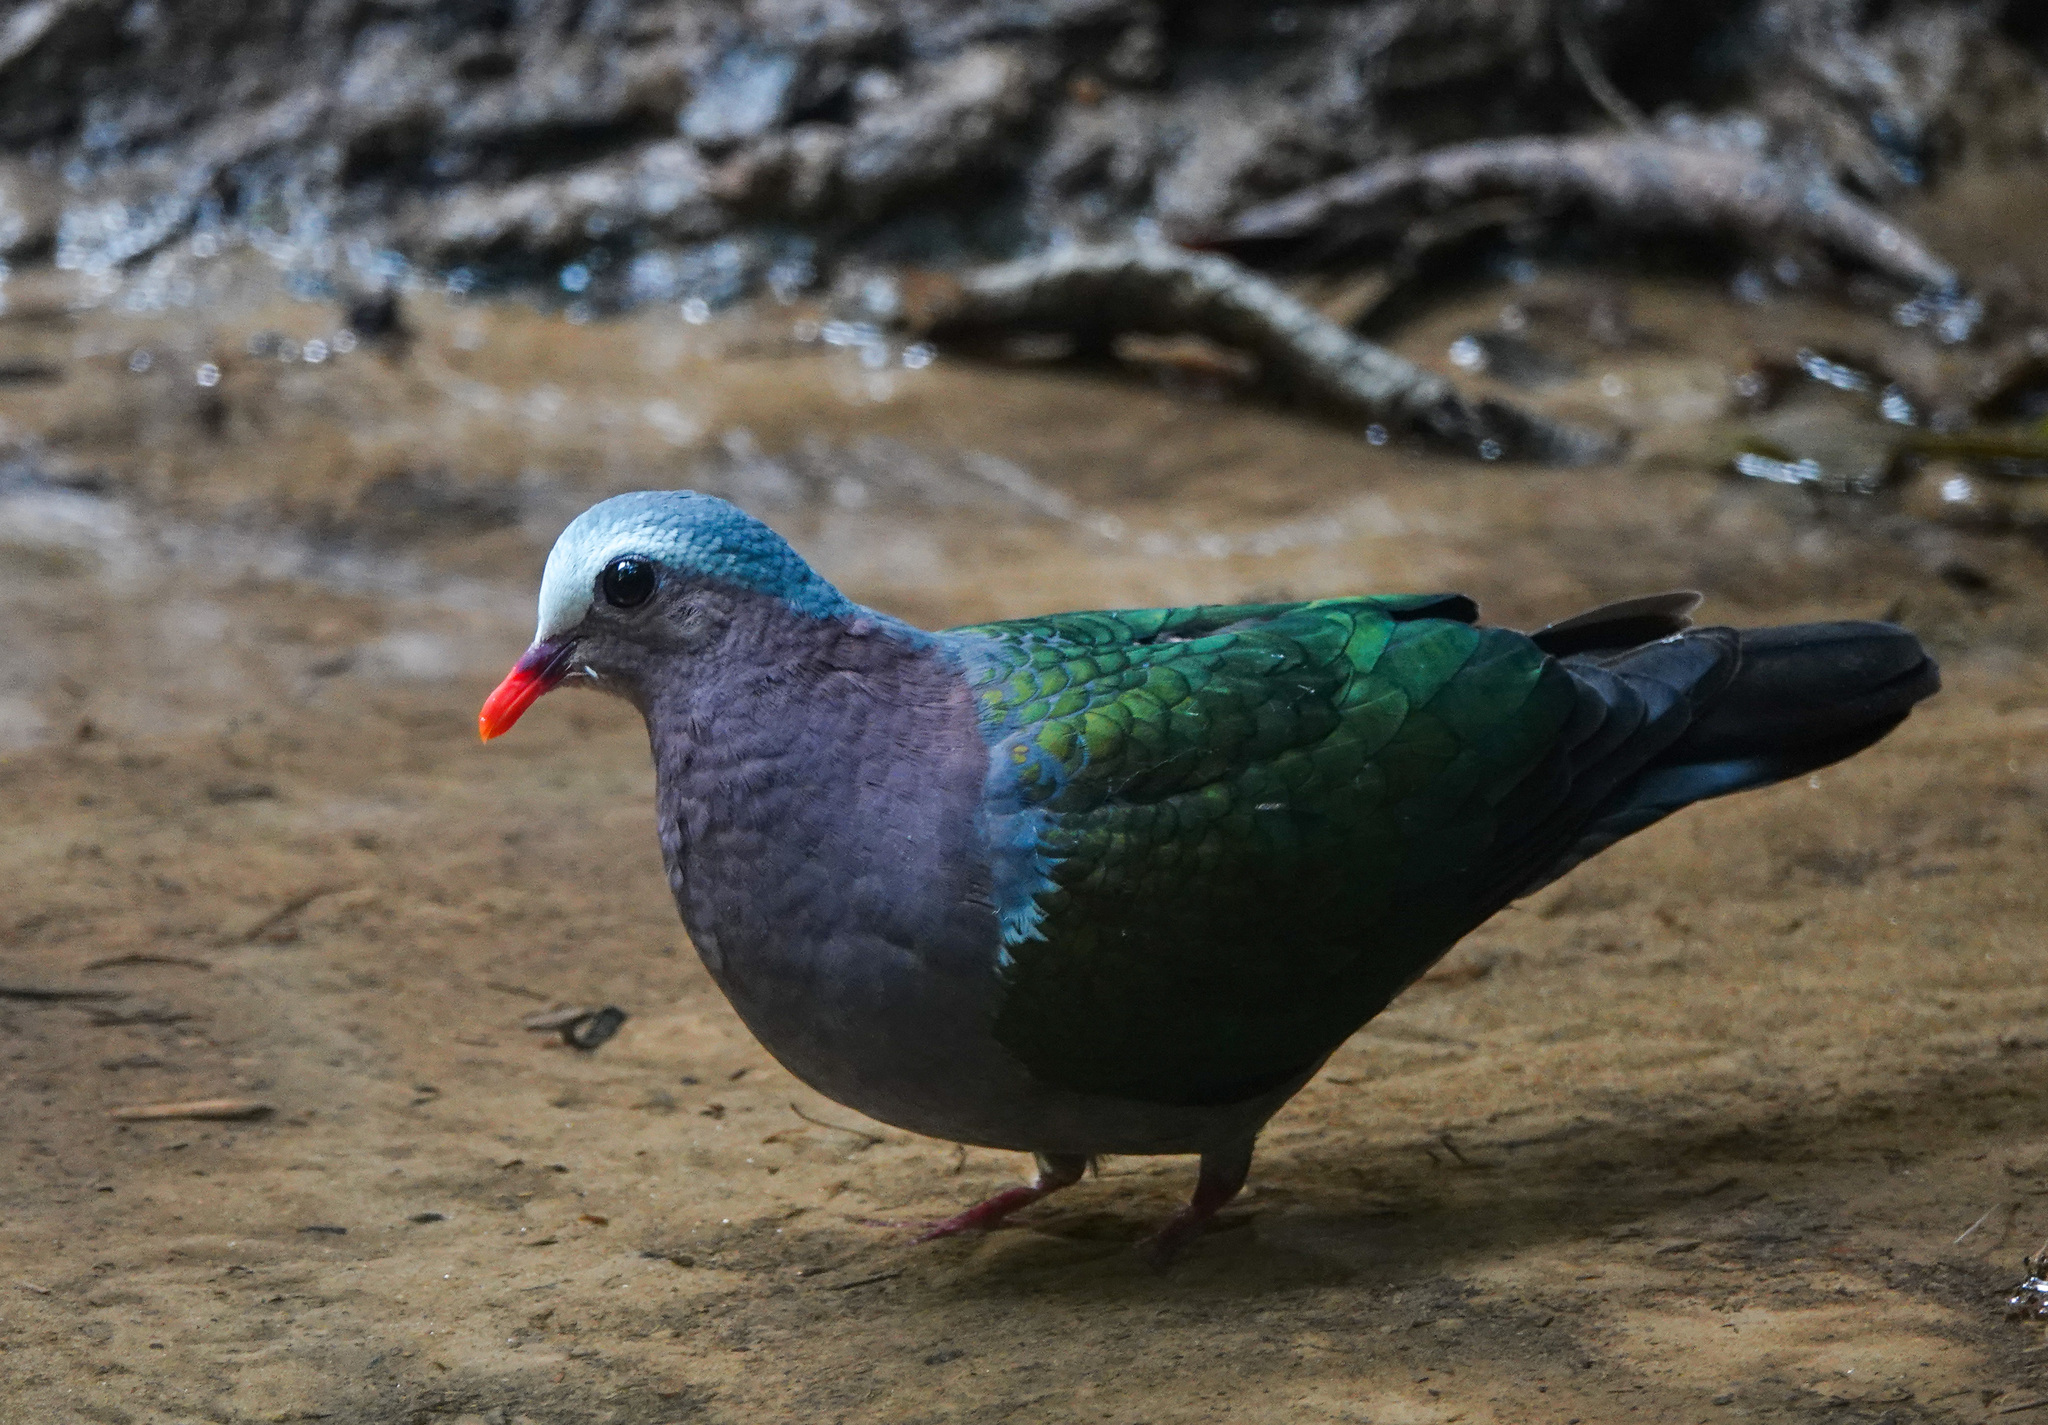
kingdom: Animalia
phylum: Chordata
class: Aves
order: Columbiformes
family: Columbidae
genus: Chalcophaps
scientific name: Chalcophaps indica
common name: Common emerald dove
